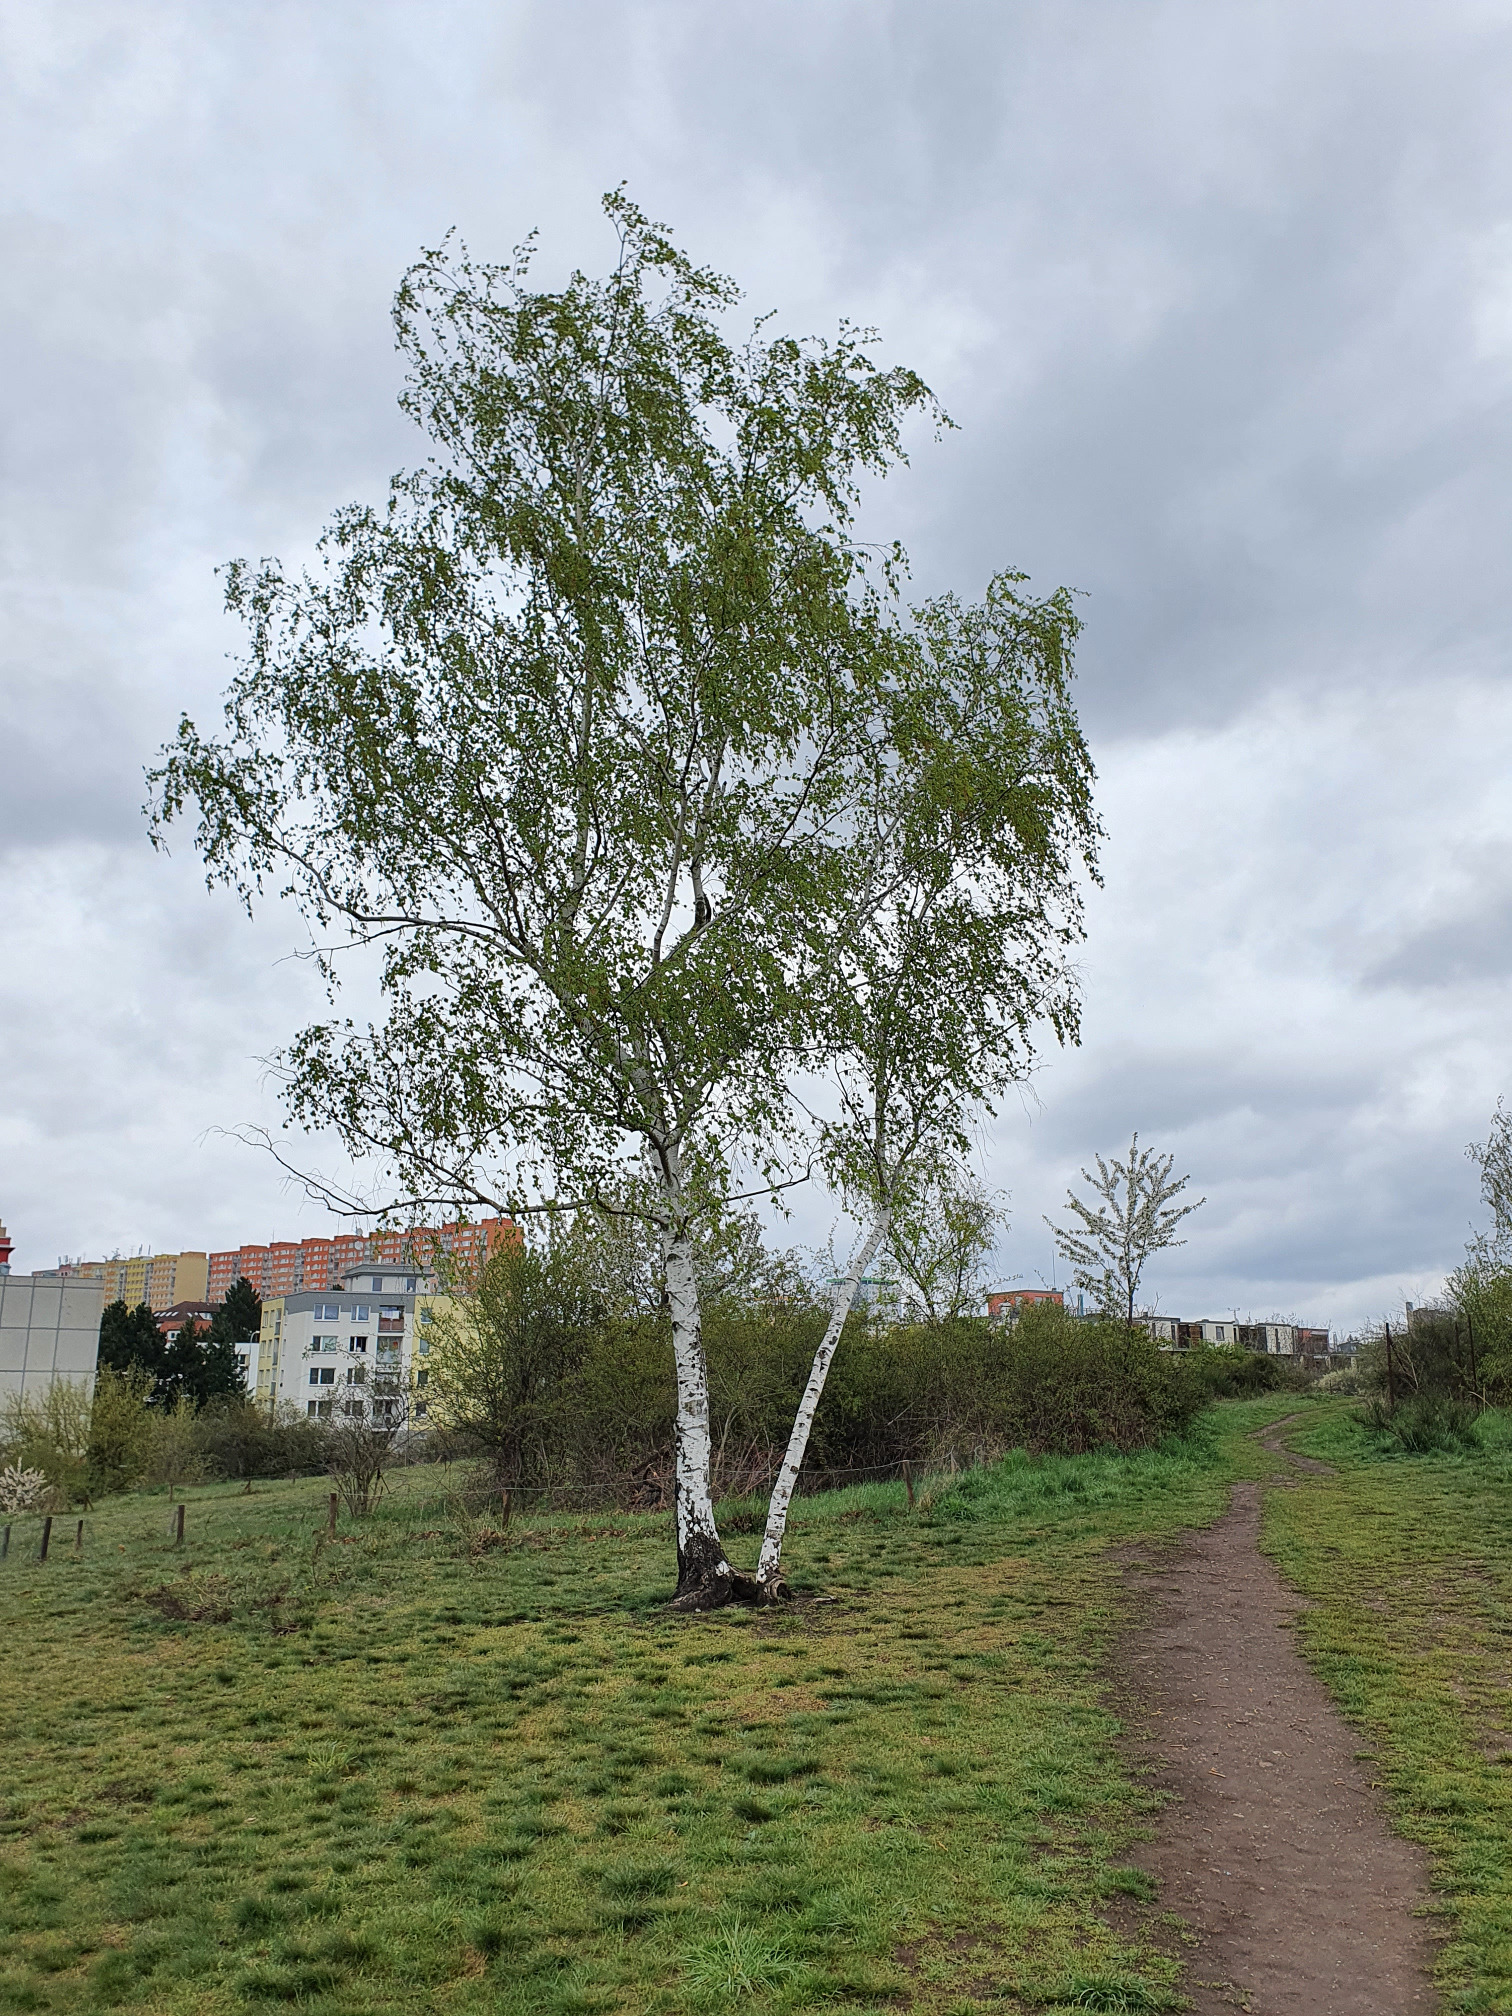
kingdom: Plantae
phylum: Tracheophyta
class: Magnoliopsida
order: Fagales
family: Betulaceae
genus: Betula
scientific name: Betula pendula
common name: Silver birch
